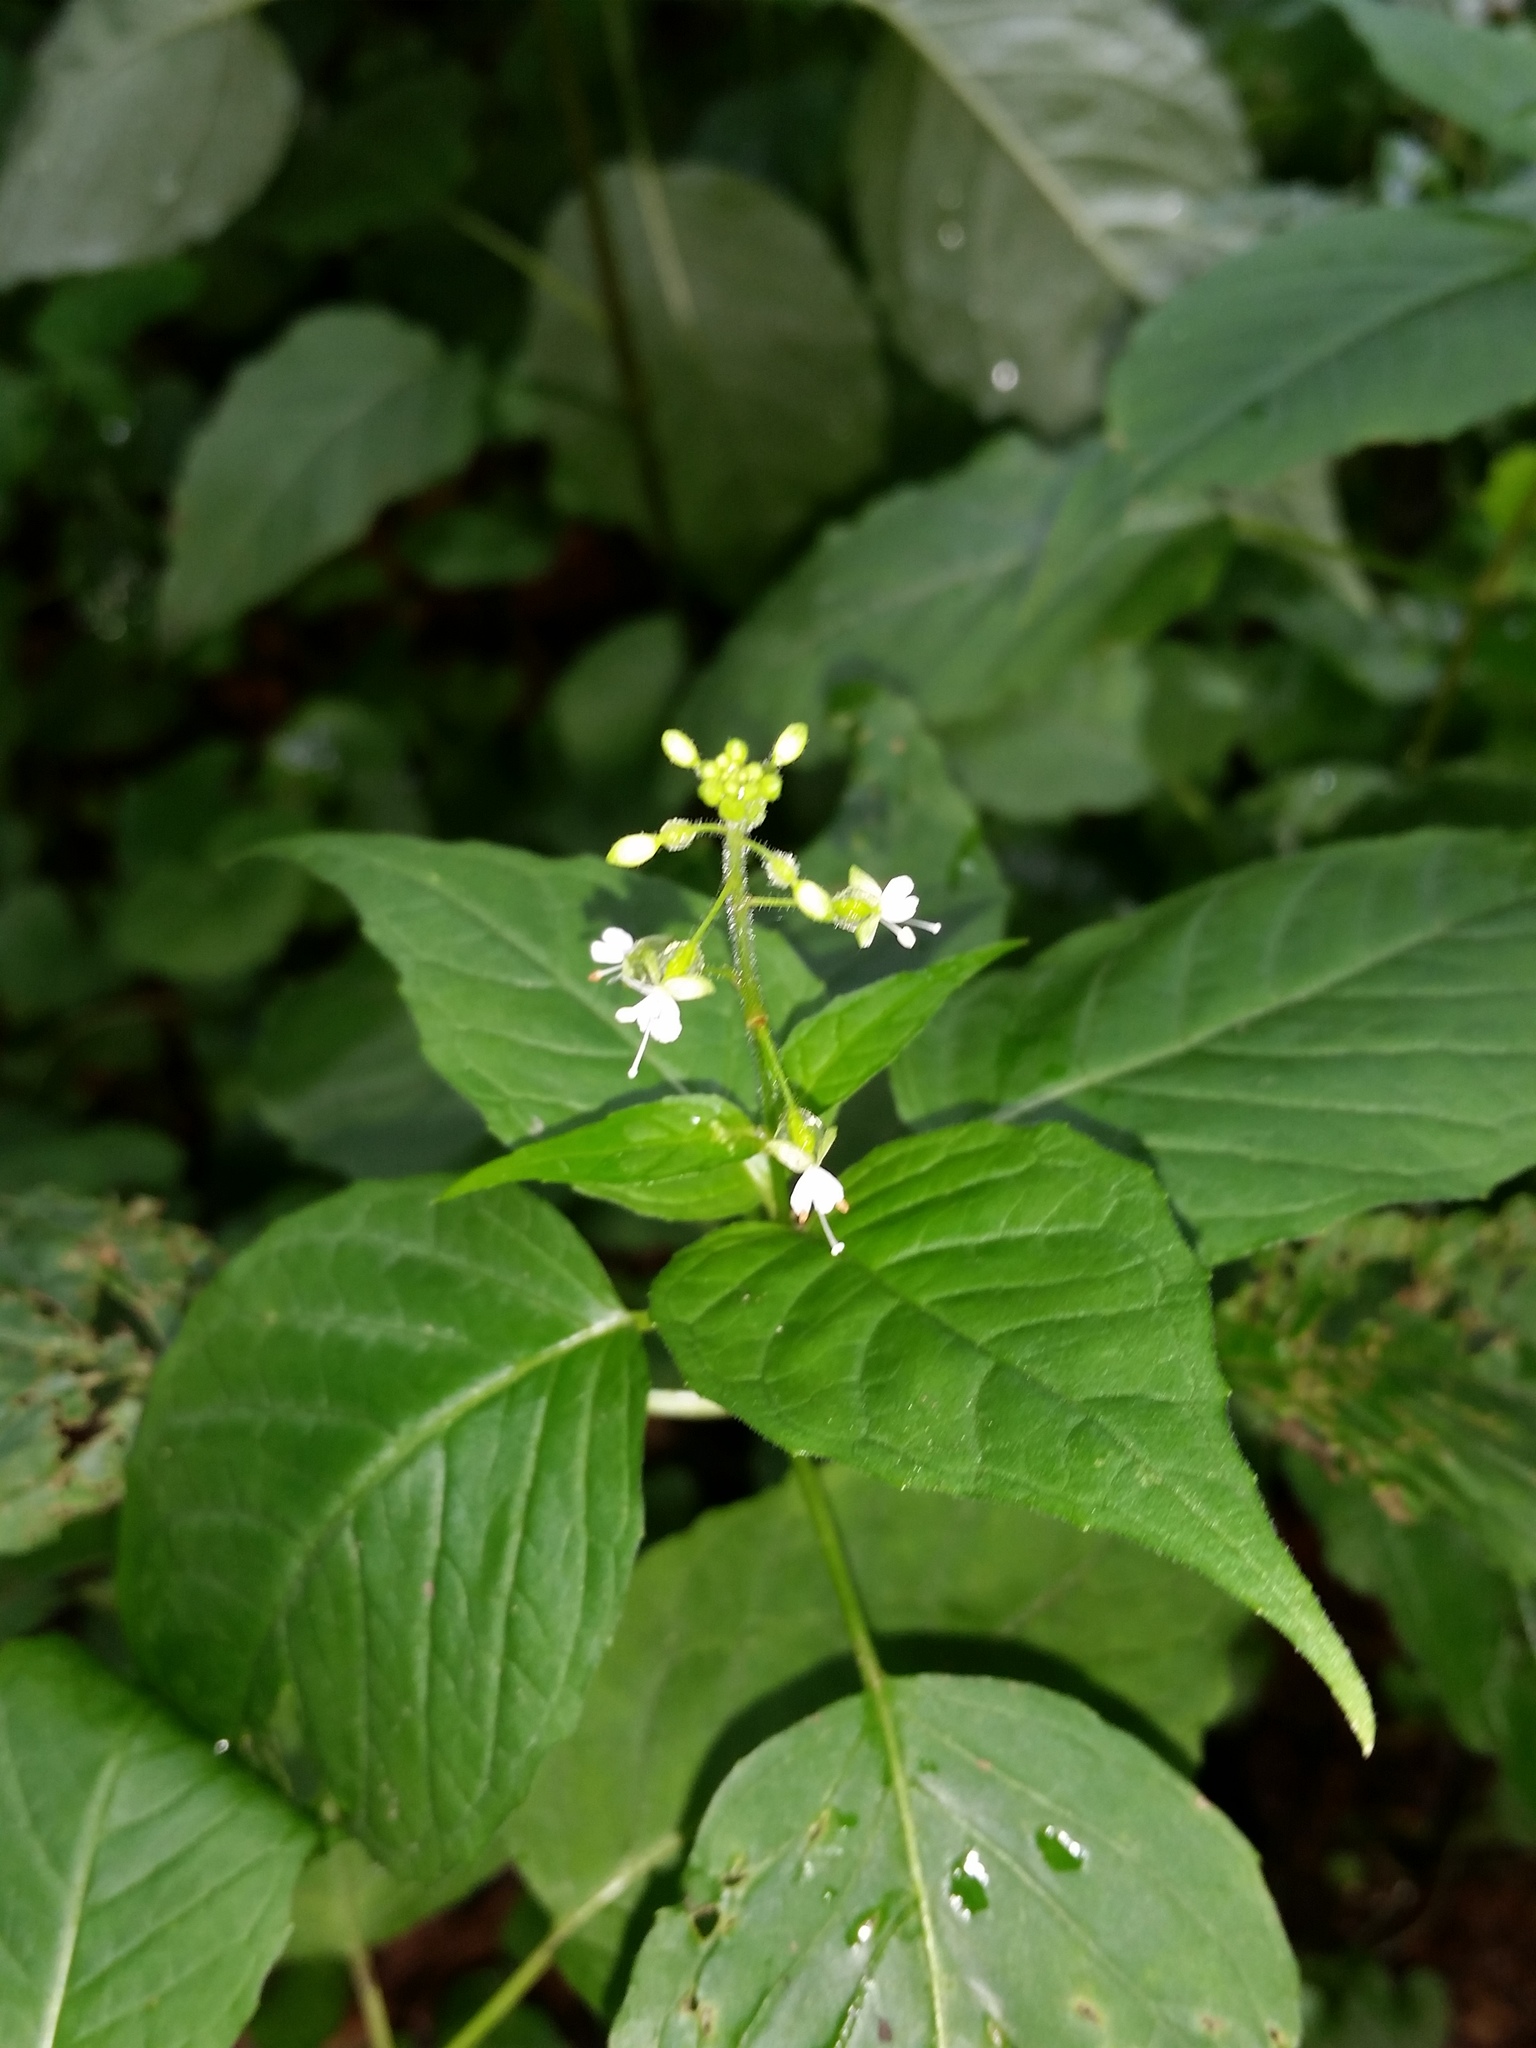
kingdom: Plantae
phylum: Tracheophyta
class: Magnoliopsida
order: Myrtales
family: Onagraceae
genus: Circaea
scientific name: Circaea canadensis
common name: Broad-leaved enchanter's nightshade
